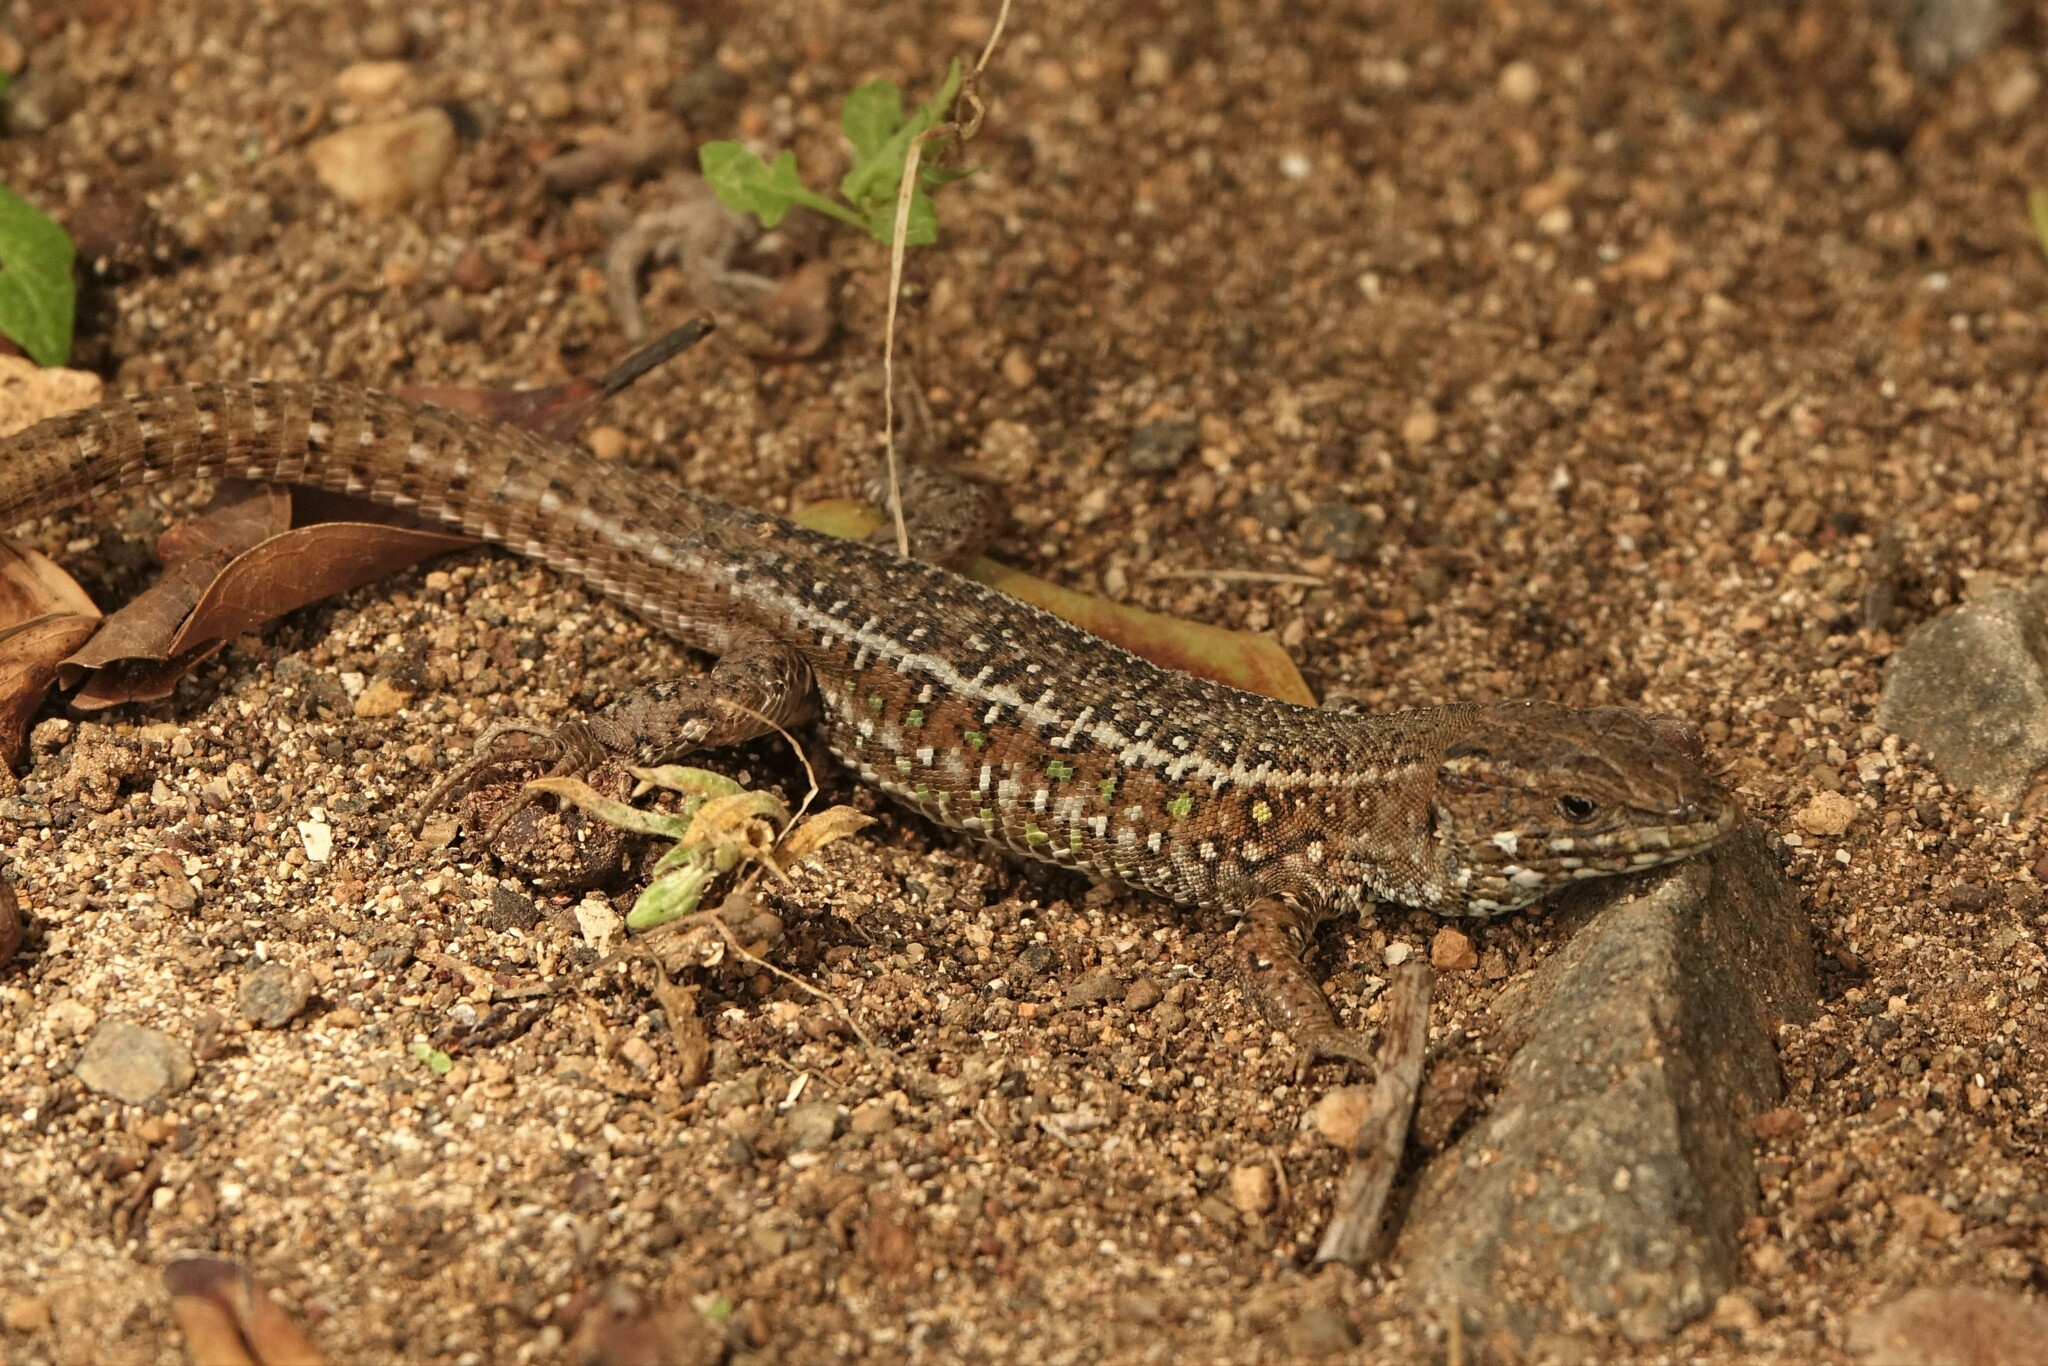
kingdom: Animalia
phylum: Chordata
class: Squamata
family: Lacertidae
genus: Gallotia
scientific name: Gallotia atlantica
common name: Atlantic lizard
